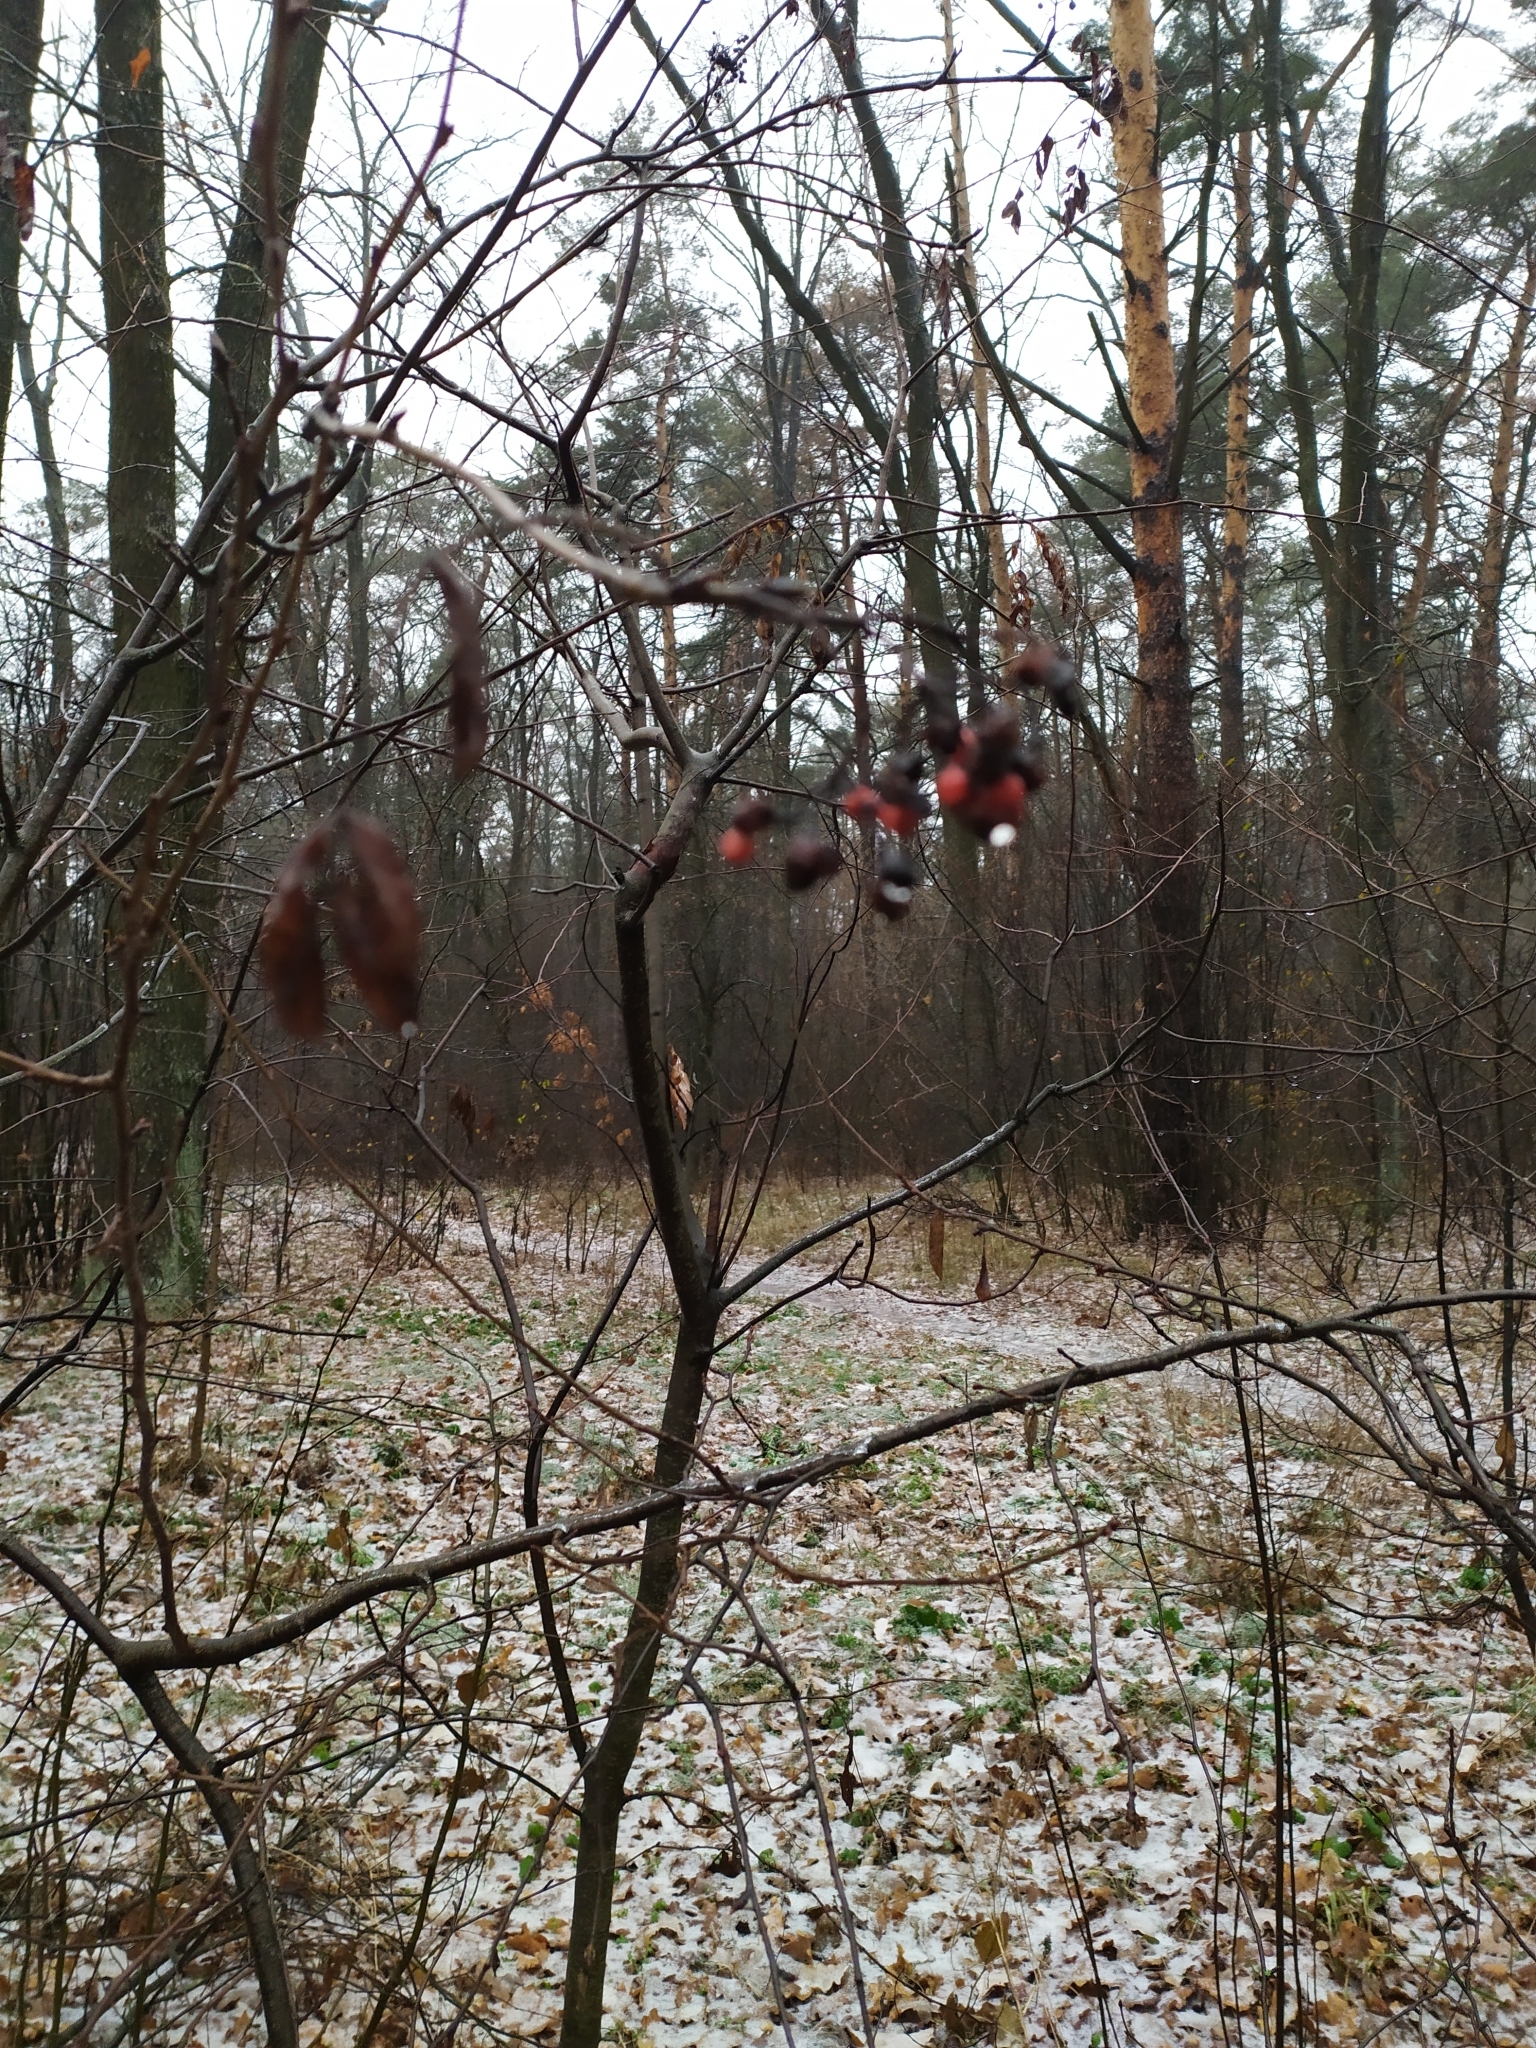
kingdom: Plantae
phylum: Tracheophyta
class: Magnoliopsida
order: Rosales
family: Rosaceae
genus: Sorbus
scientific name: Sorbus aucuparia
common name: Rowan
